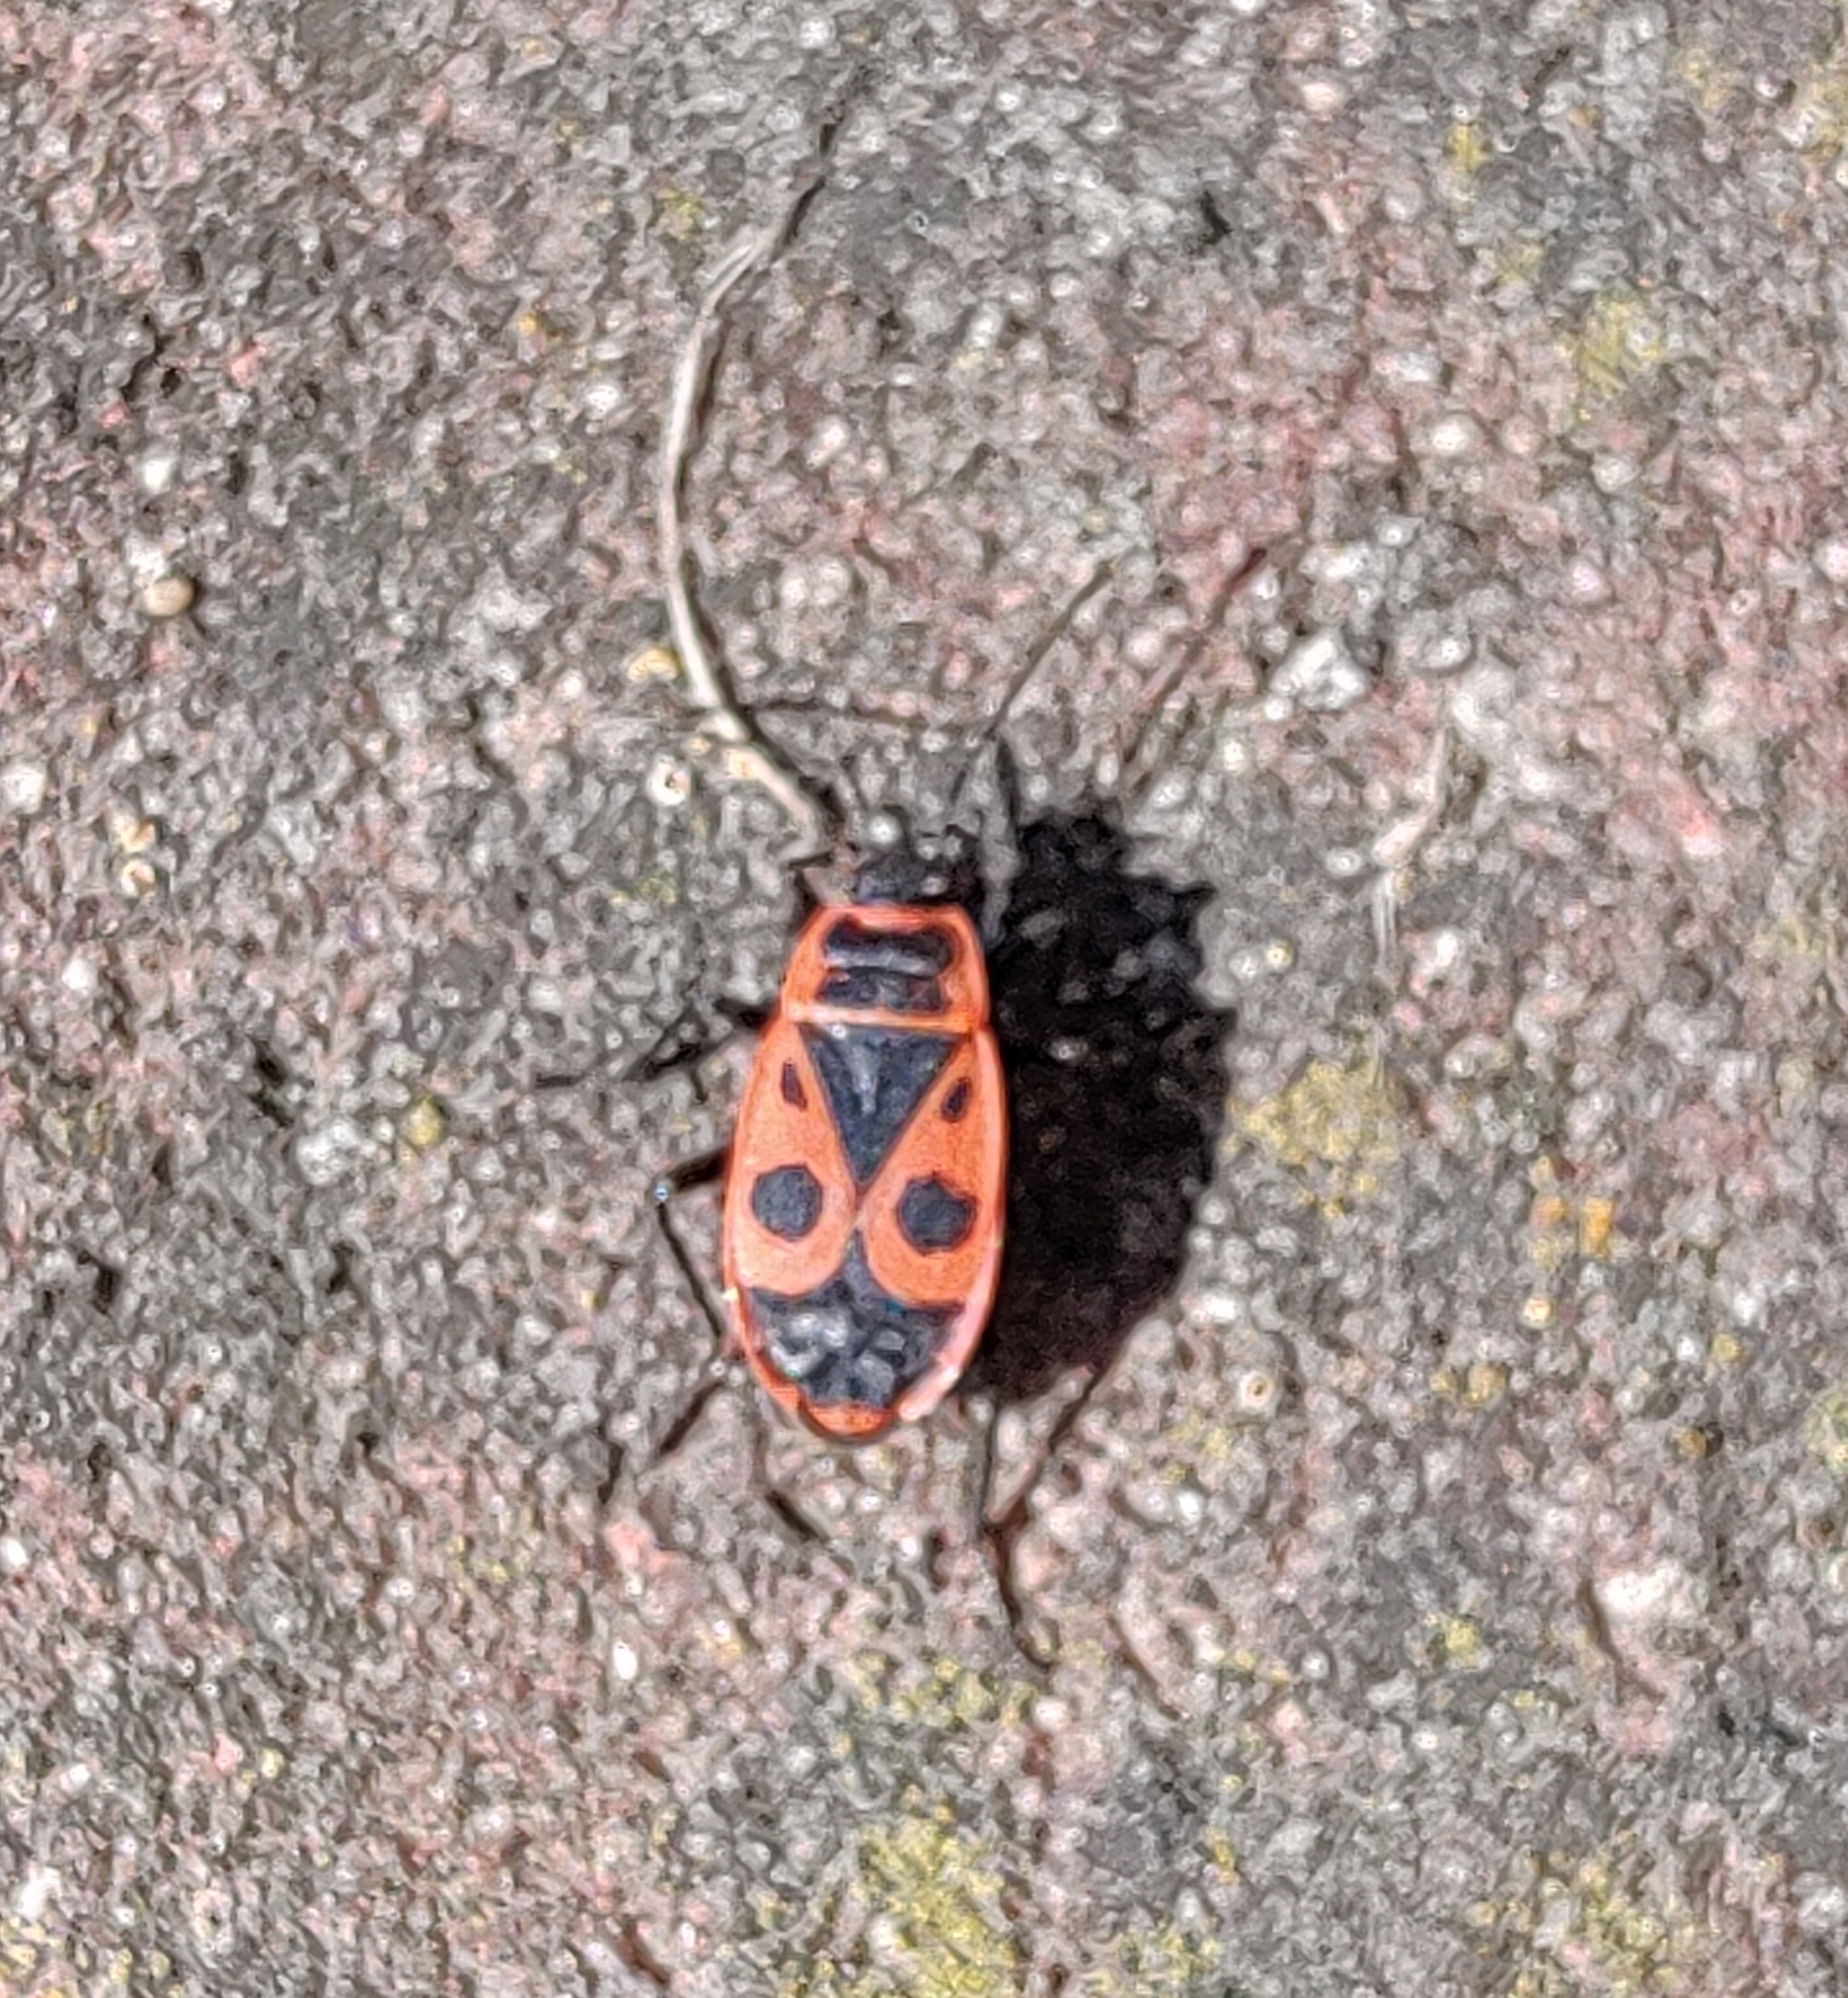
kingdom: Animalia
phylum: Arthropoda
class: Insecta
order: Hemiptera
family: Pyrrhocoridae
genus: Pyrrhocoris
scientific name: Pyrrhocoris apterus
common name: Firebug
